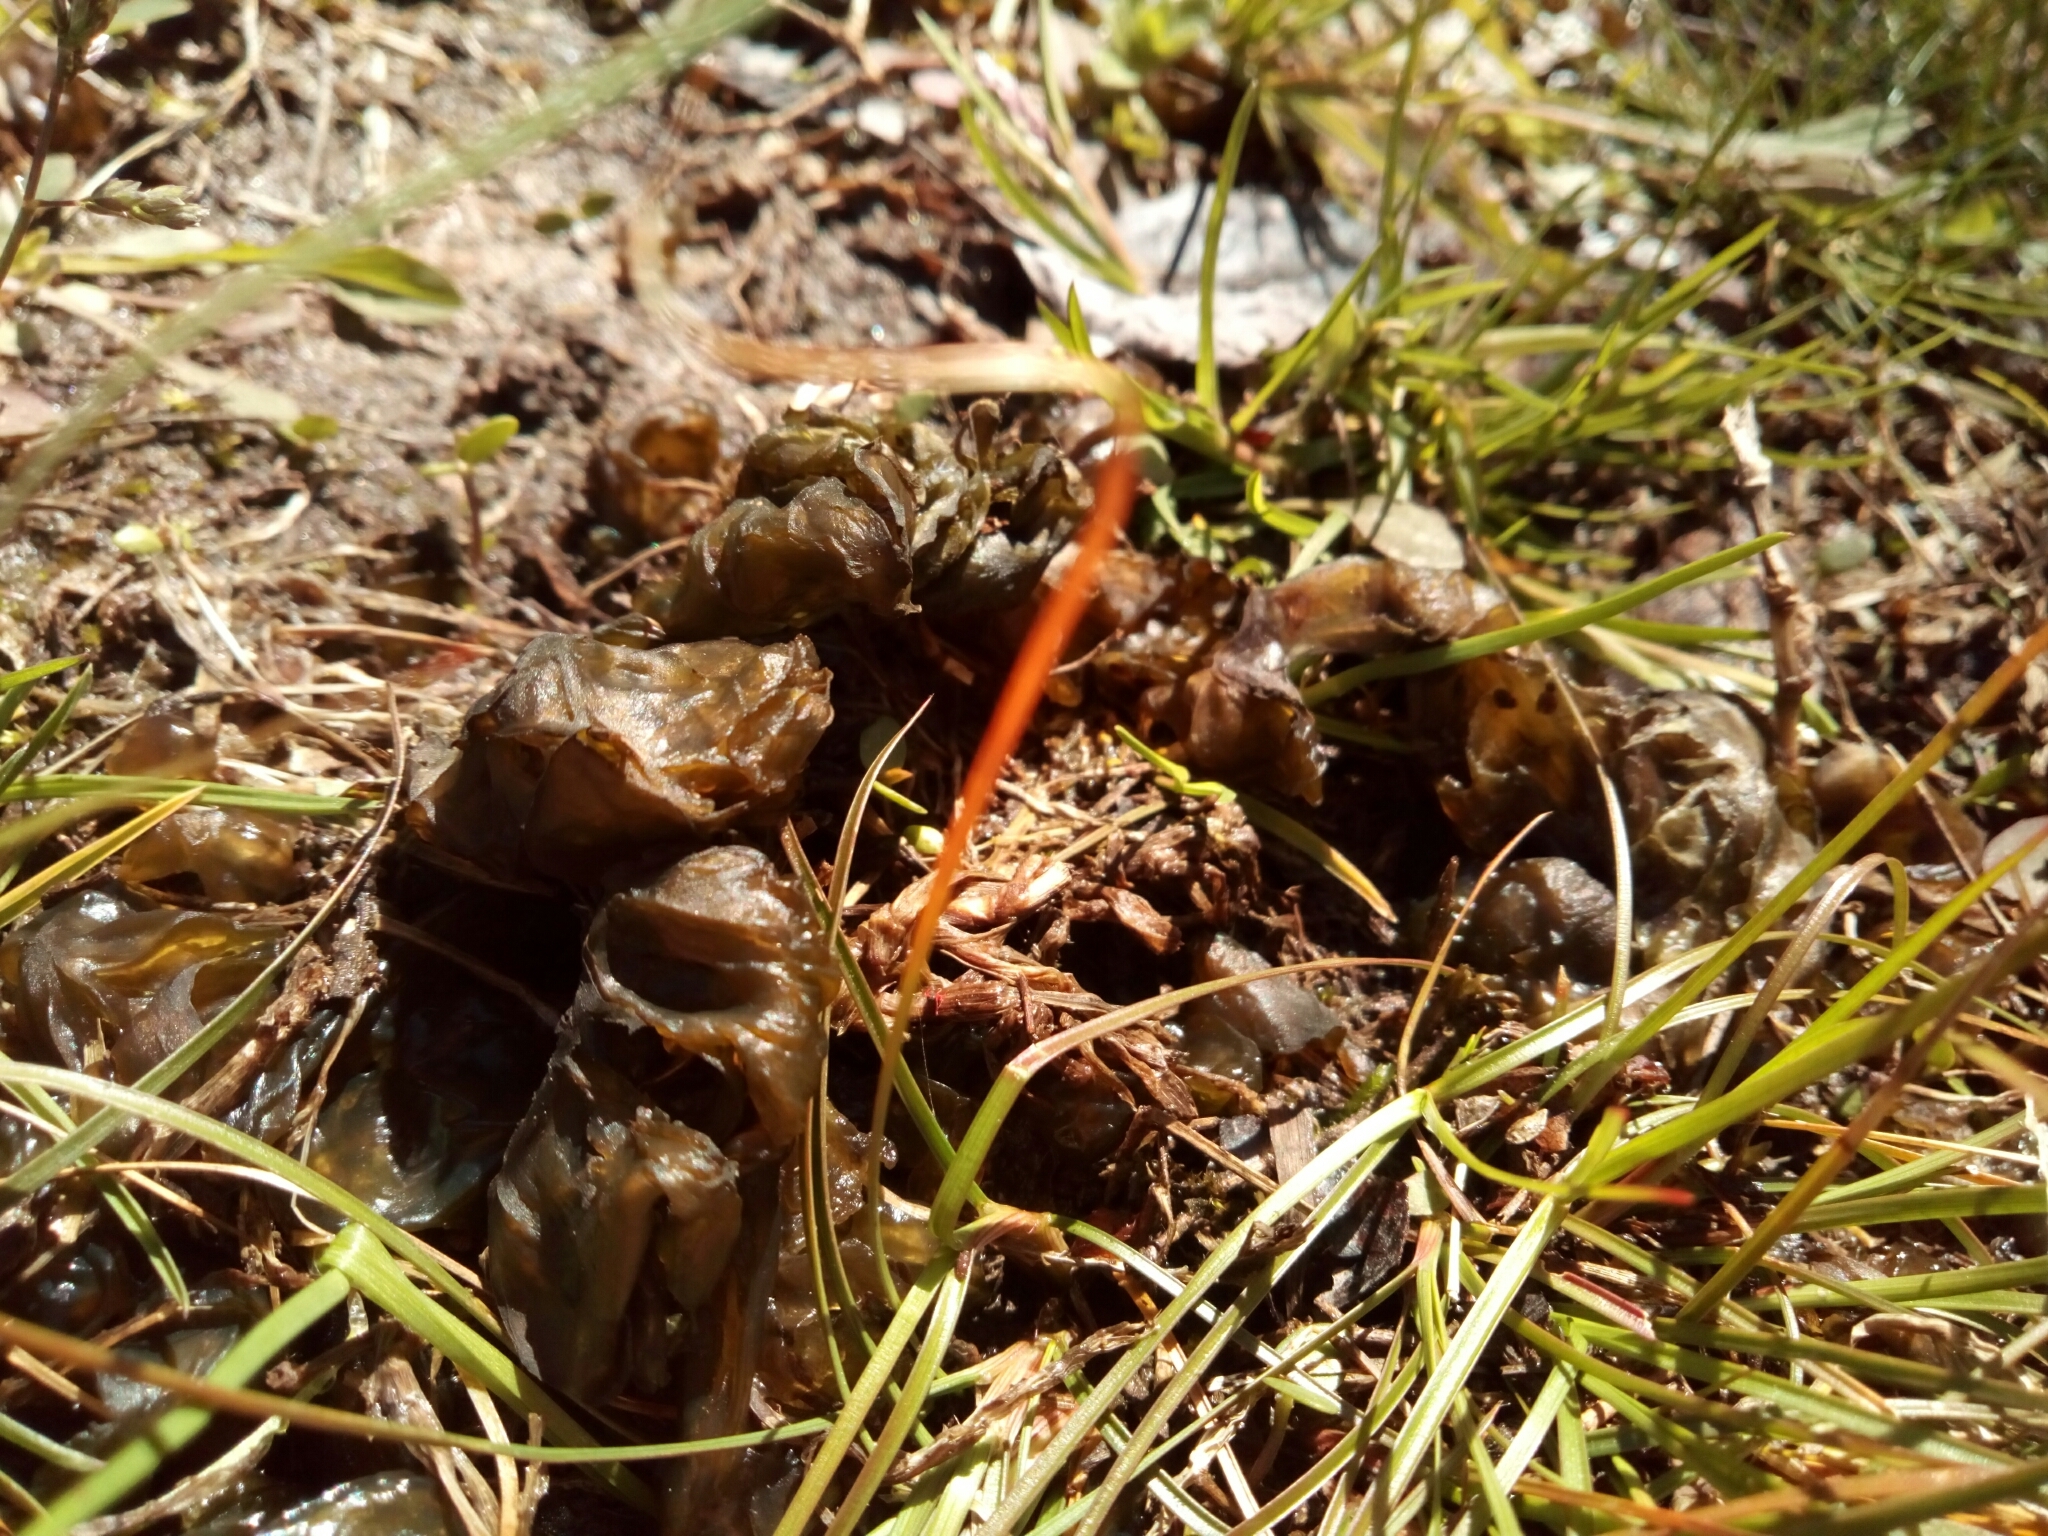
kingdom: Bacteria
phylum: Cyanobacteria
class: Cyanobacteriia
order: Cyanobacteriales
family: Nostocaceae
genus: Nostoc
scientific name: Nostoc commune
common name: Star jelly
